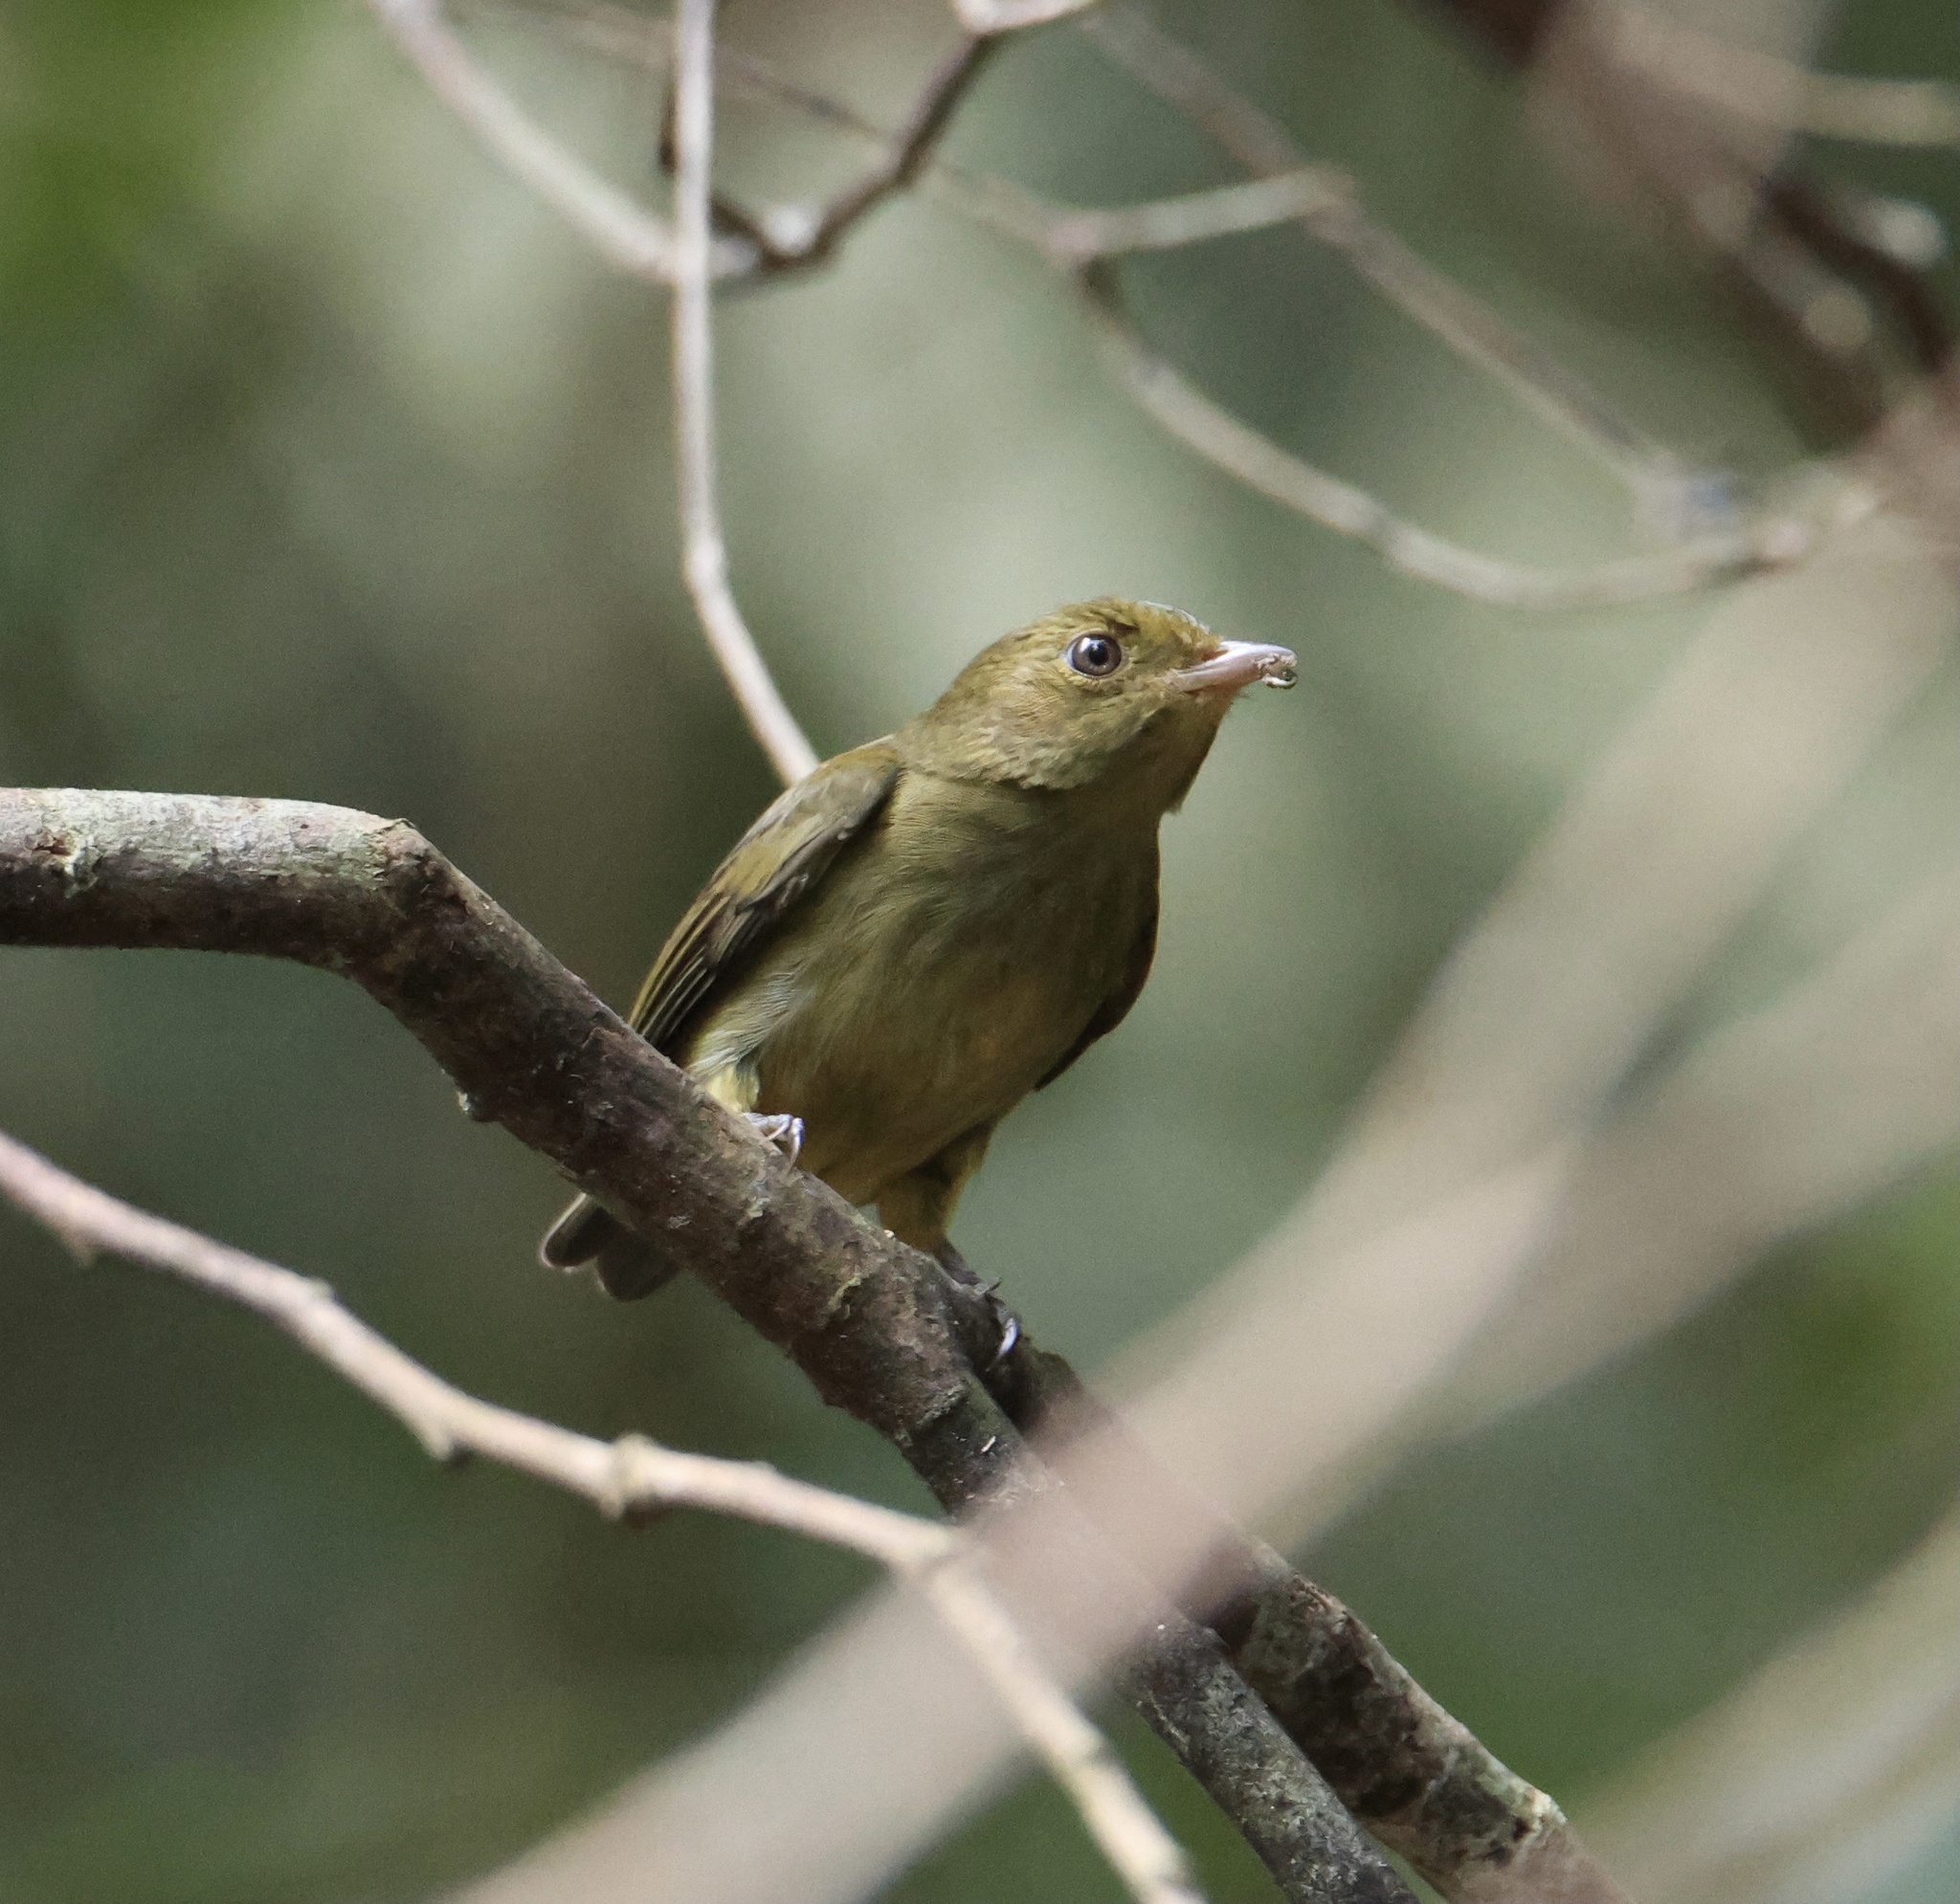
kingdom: Animalia
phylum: Chordata
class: Aves
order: Passeriformes
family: Pipridae
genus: Pipra
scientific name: Pipra mentalis
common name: Red-capped manakin
